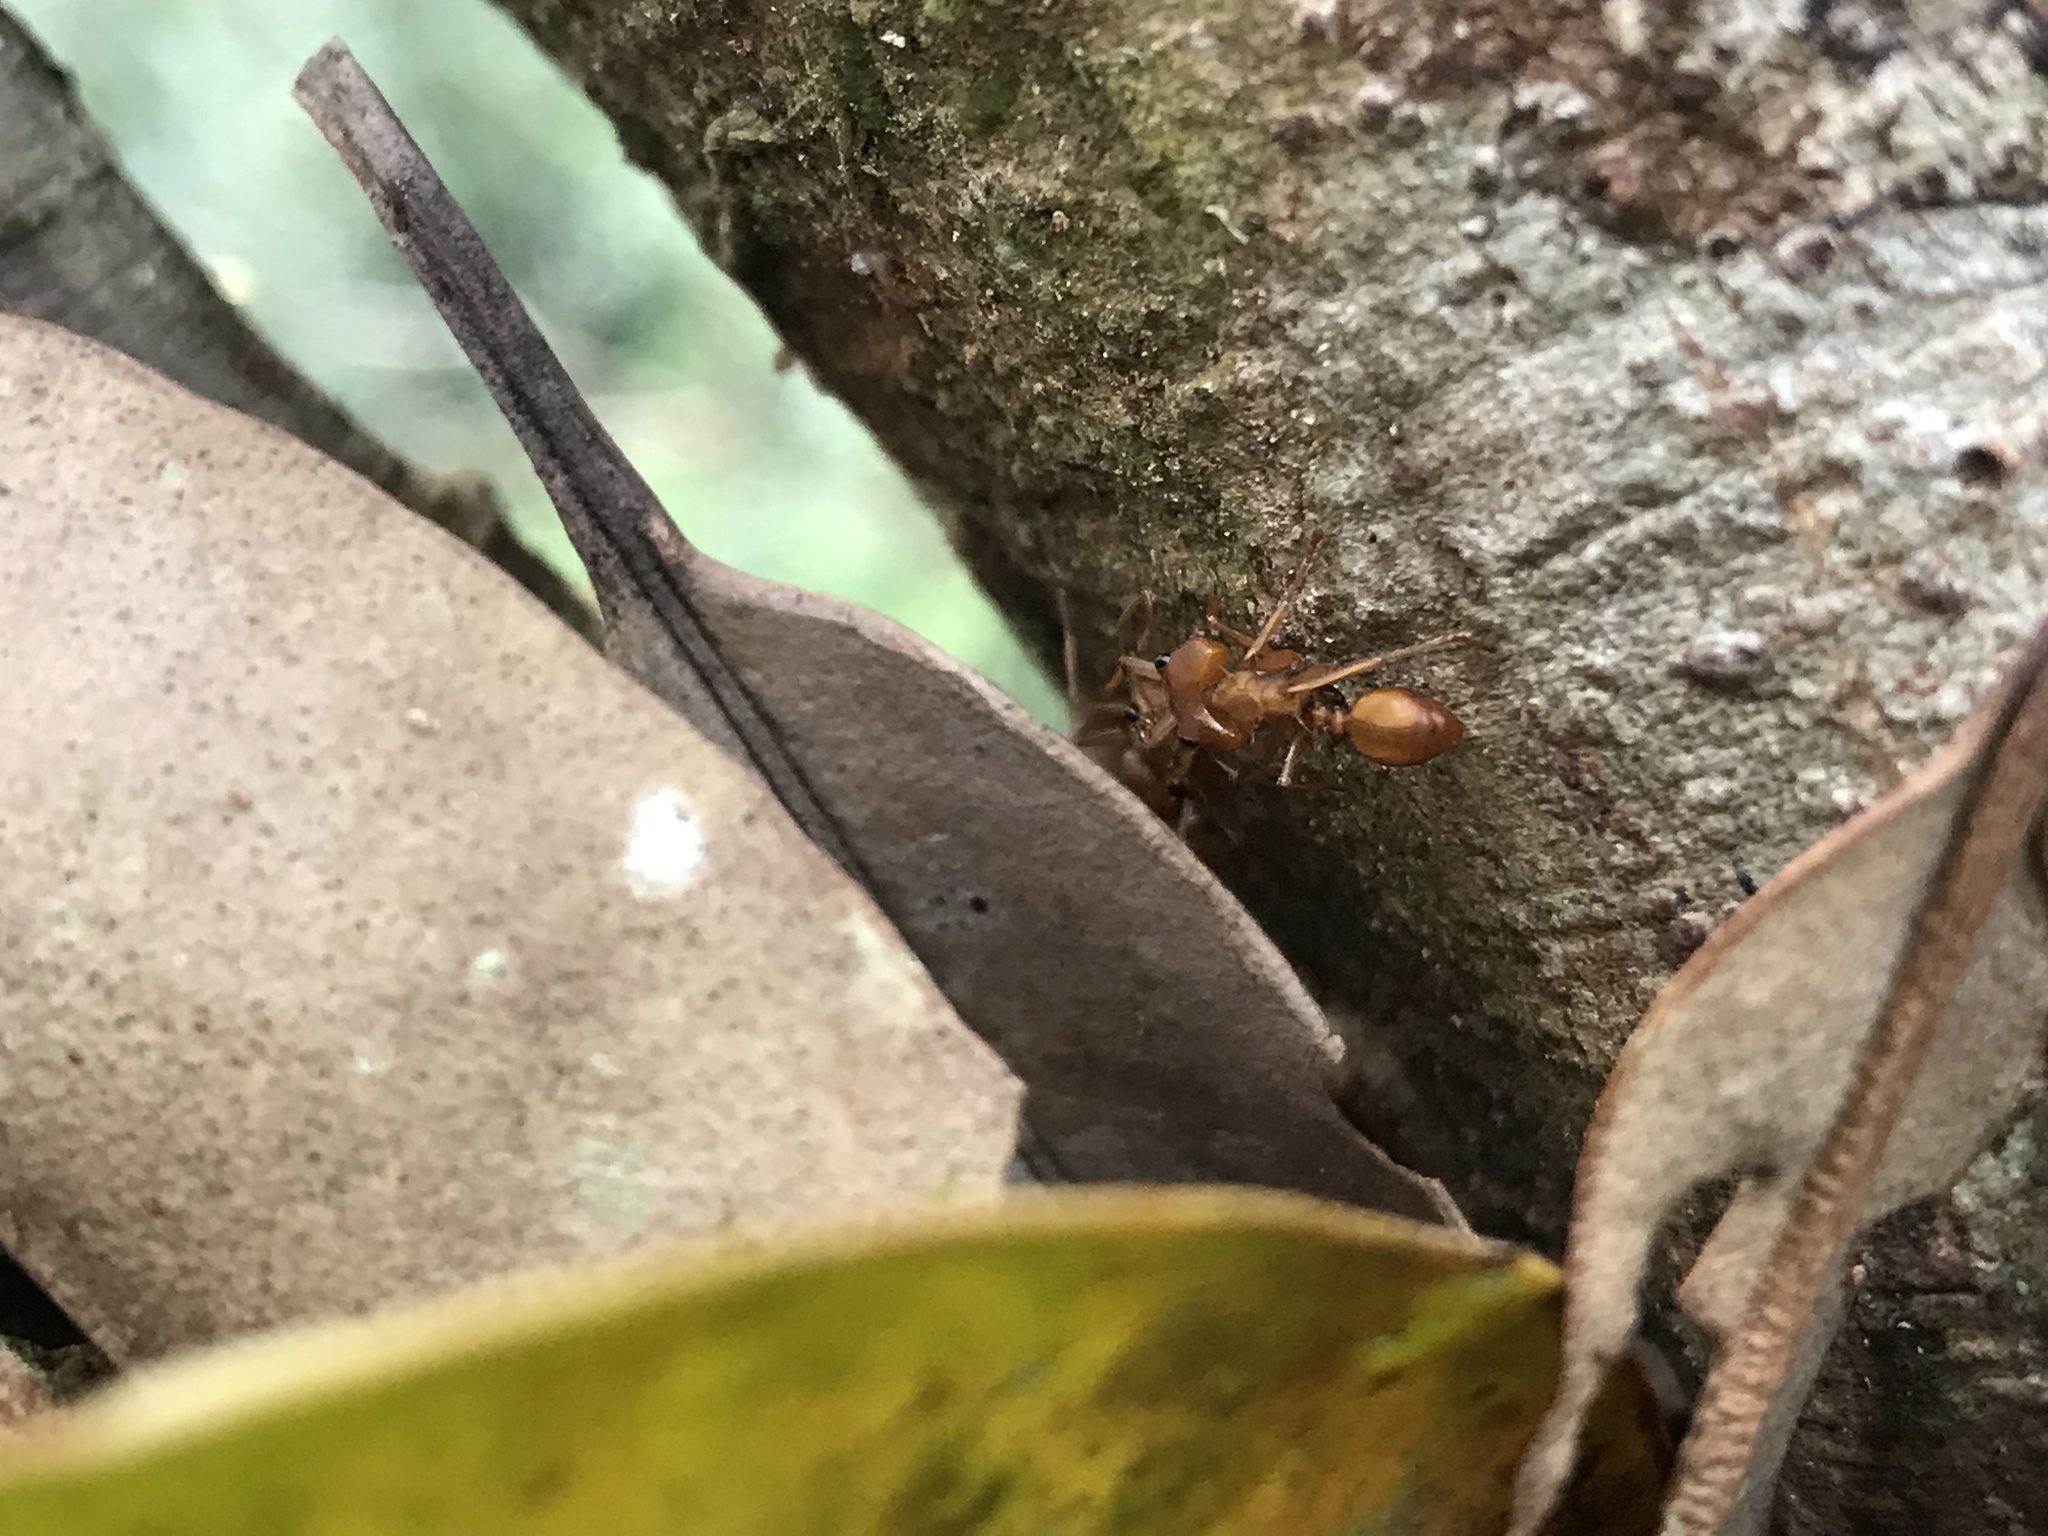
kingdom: Animalia
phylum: Arthropoda
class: Insecta
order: Hymenoptera
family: Formicidae
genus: Daceton
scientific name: Daceton armigerum
